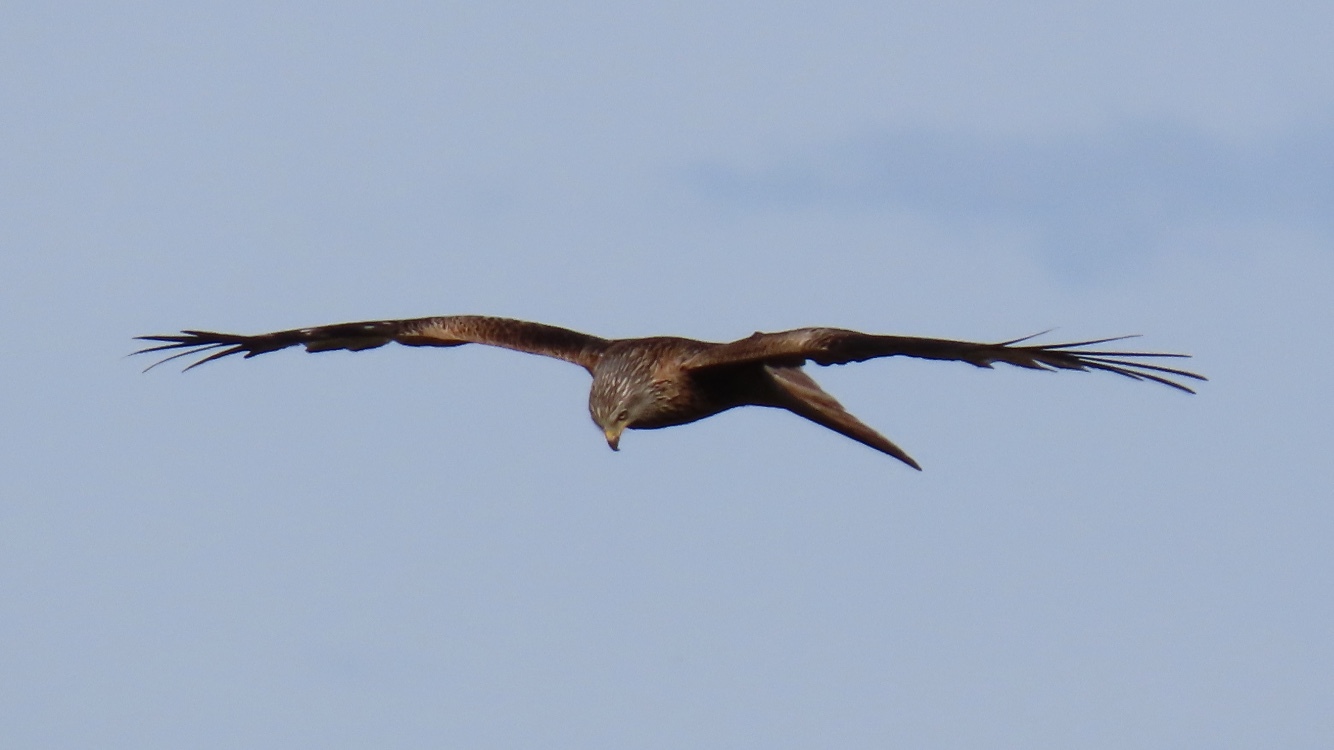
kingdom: Animalia
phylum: Chordata
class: Aves
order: Accipitriformes
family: Accipitridae
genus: Milvus
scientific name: Milvus milvus
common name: Red kite
